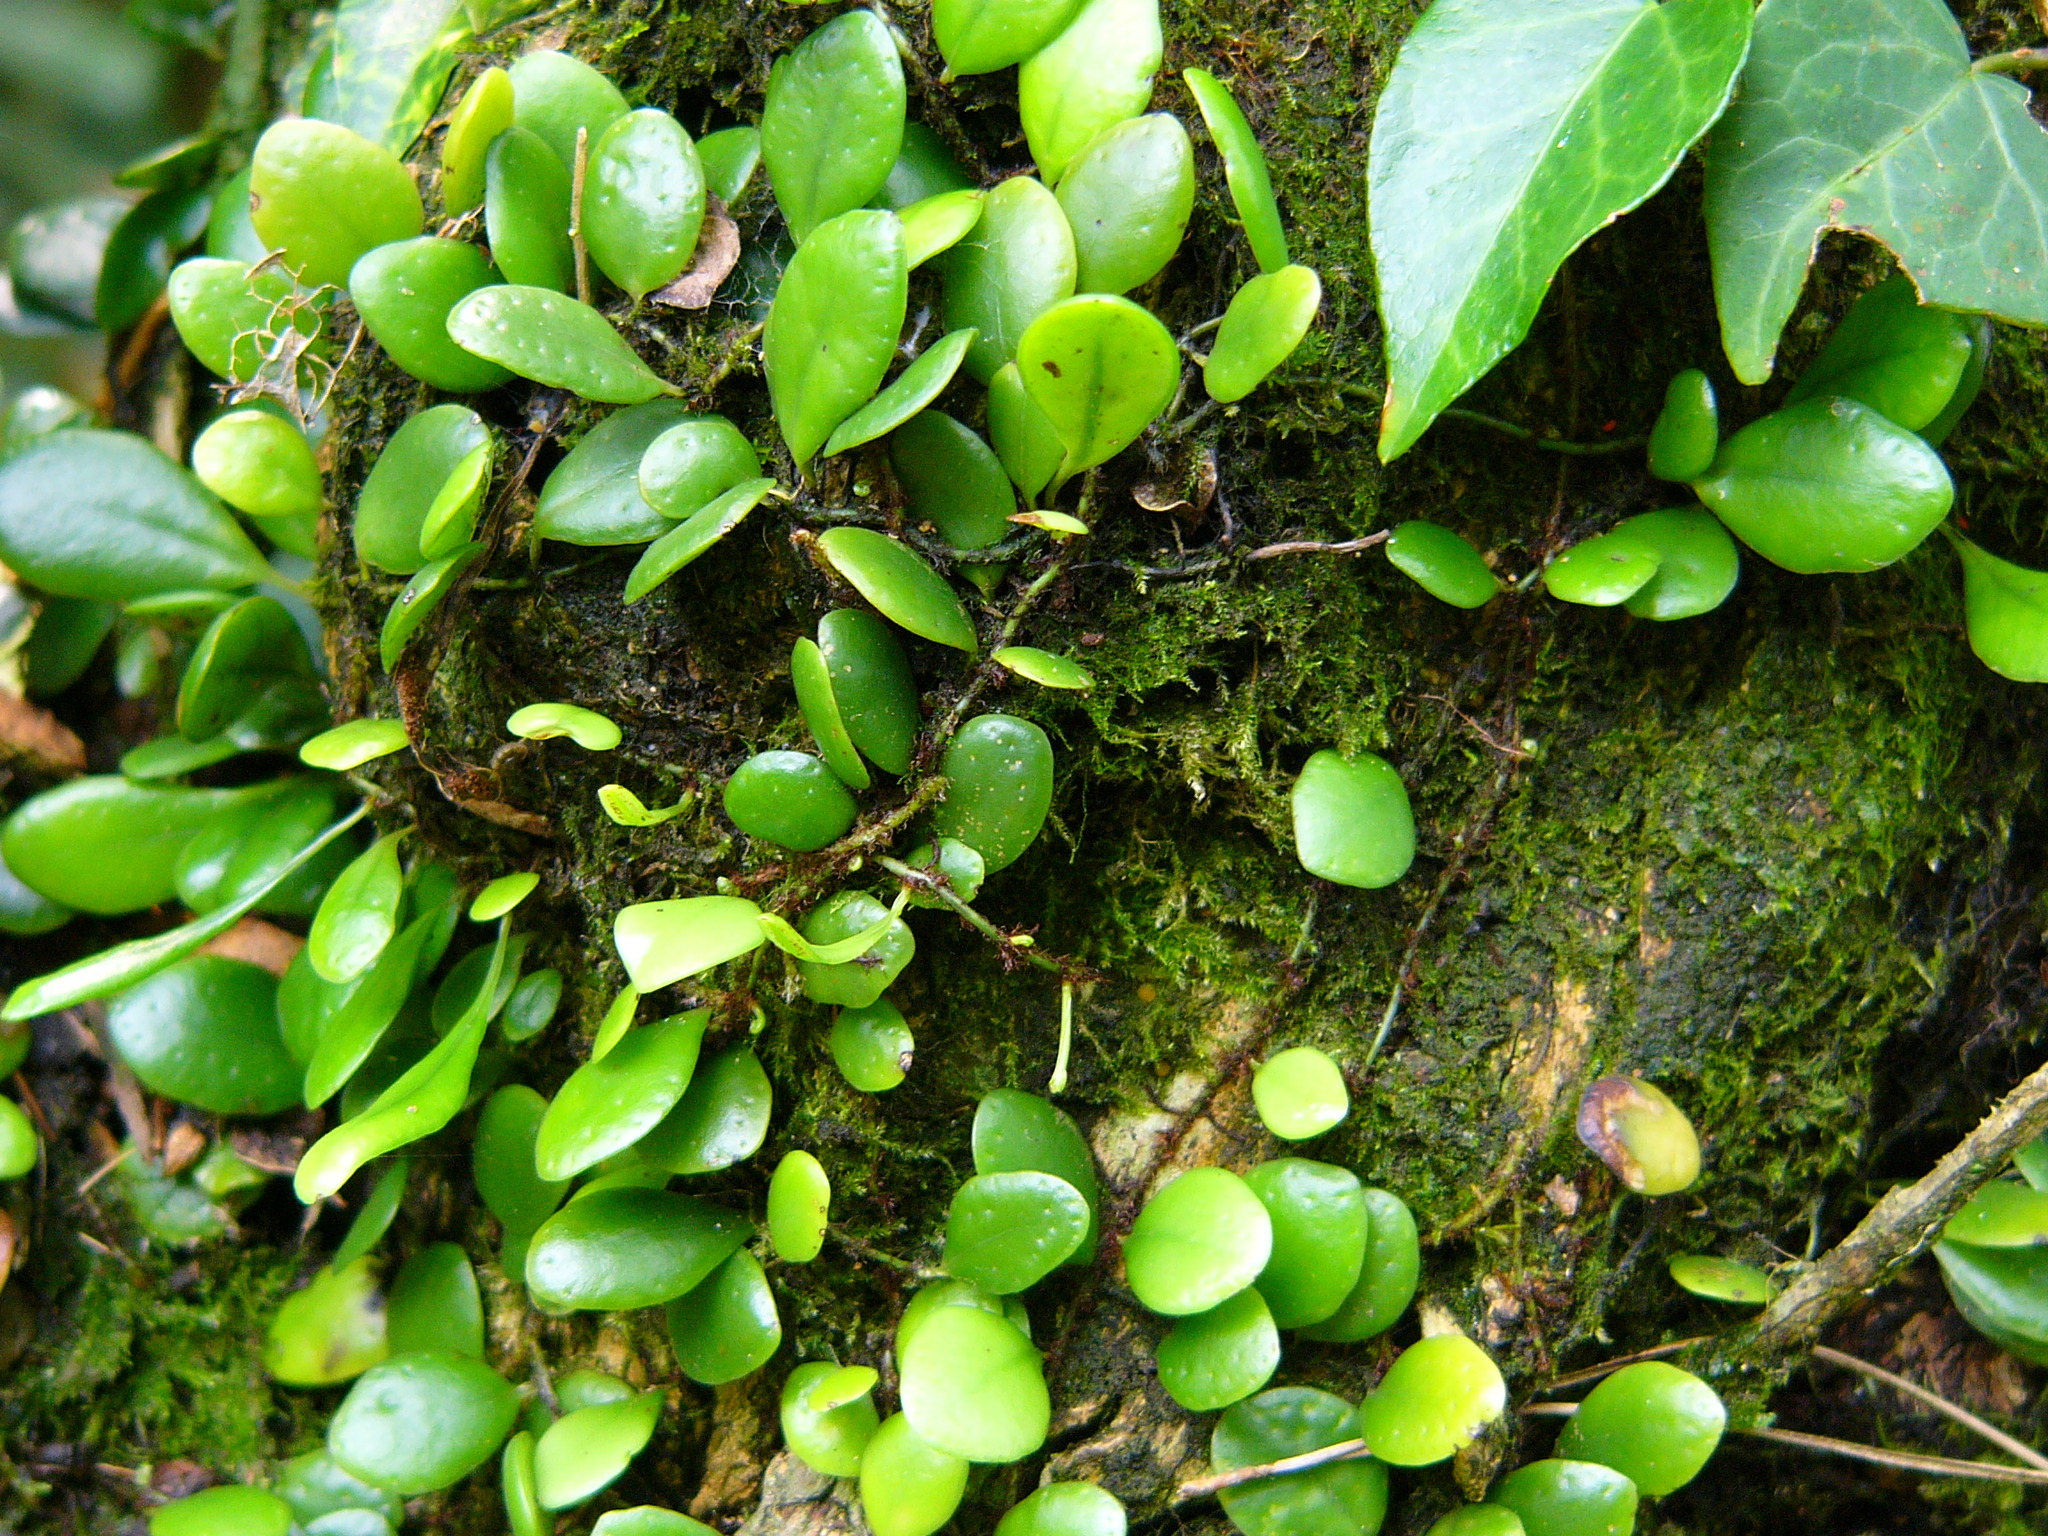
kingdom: Plantae
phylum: Tracheophyta
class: Polypodiopsida
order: Polypodiales
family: Polypodiaceae
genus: Lepisorus
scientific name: Lepisorus microphyllus
